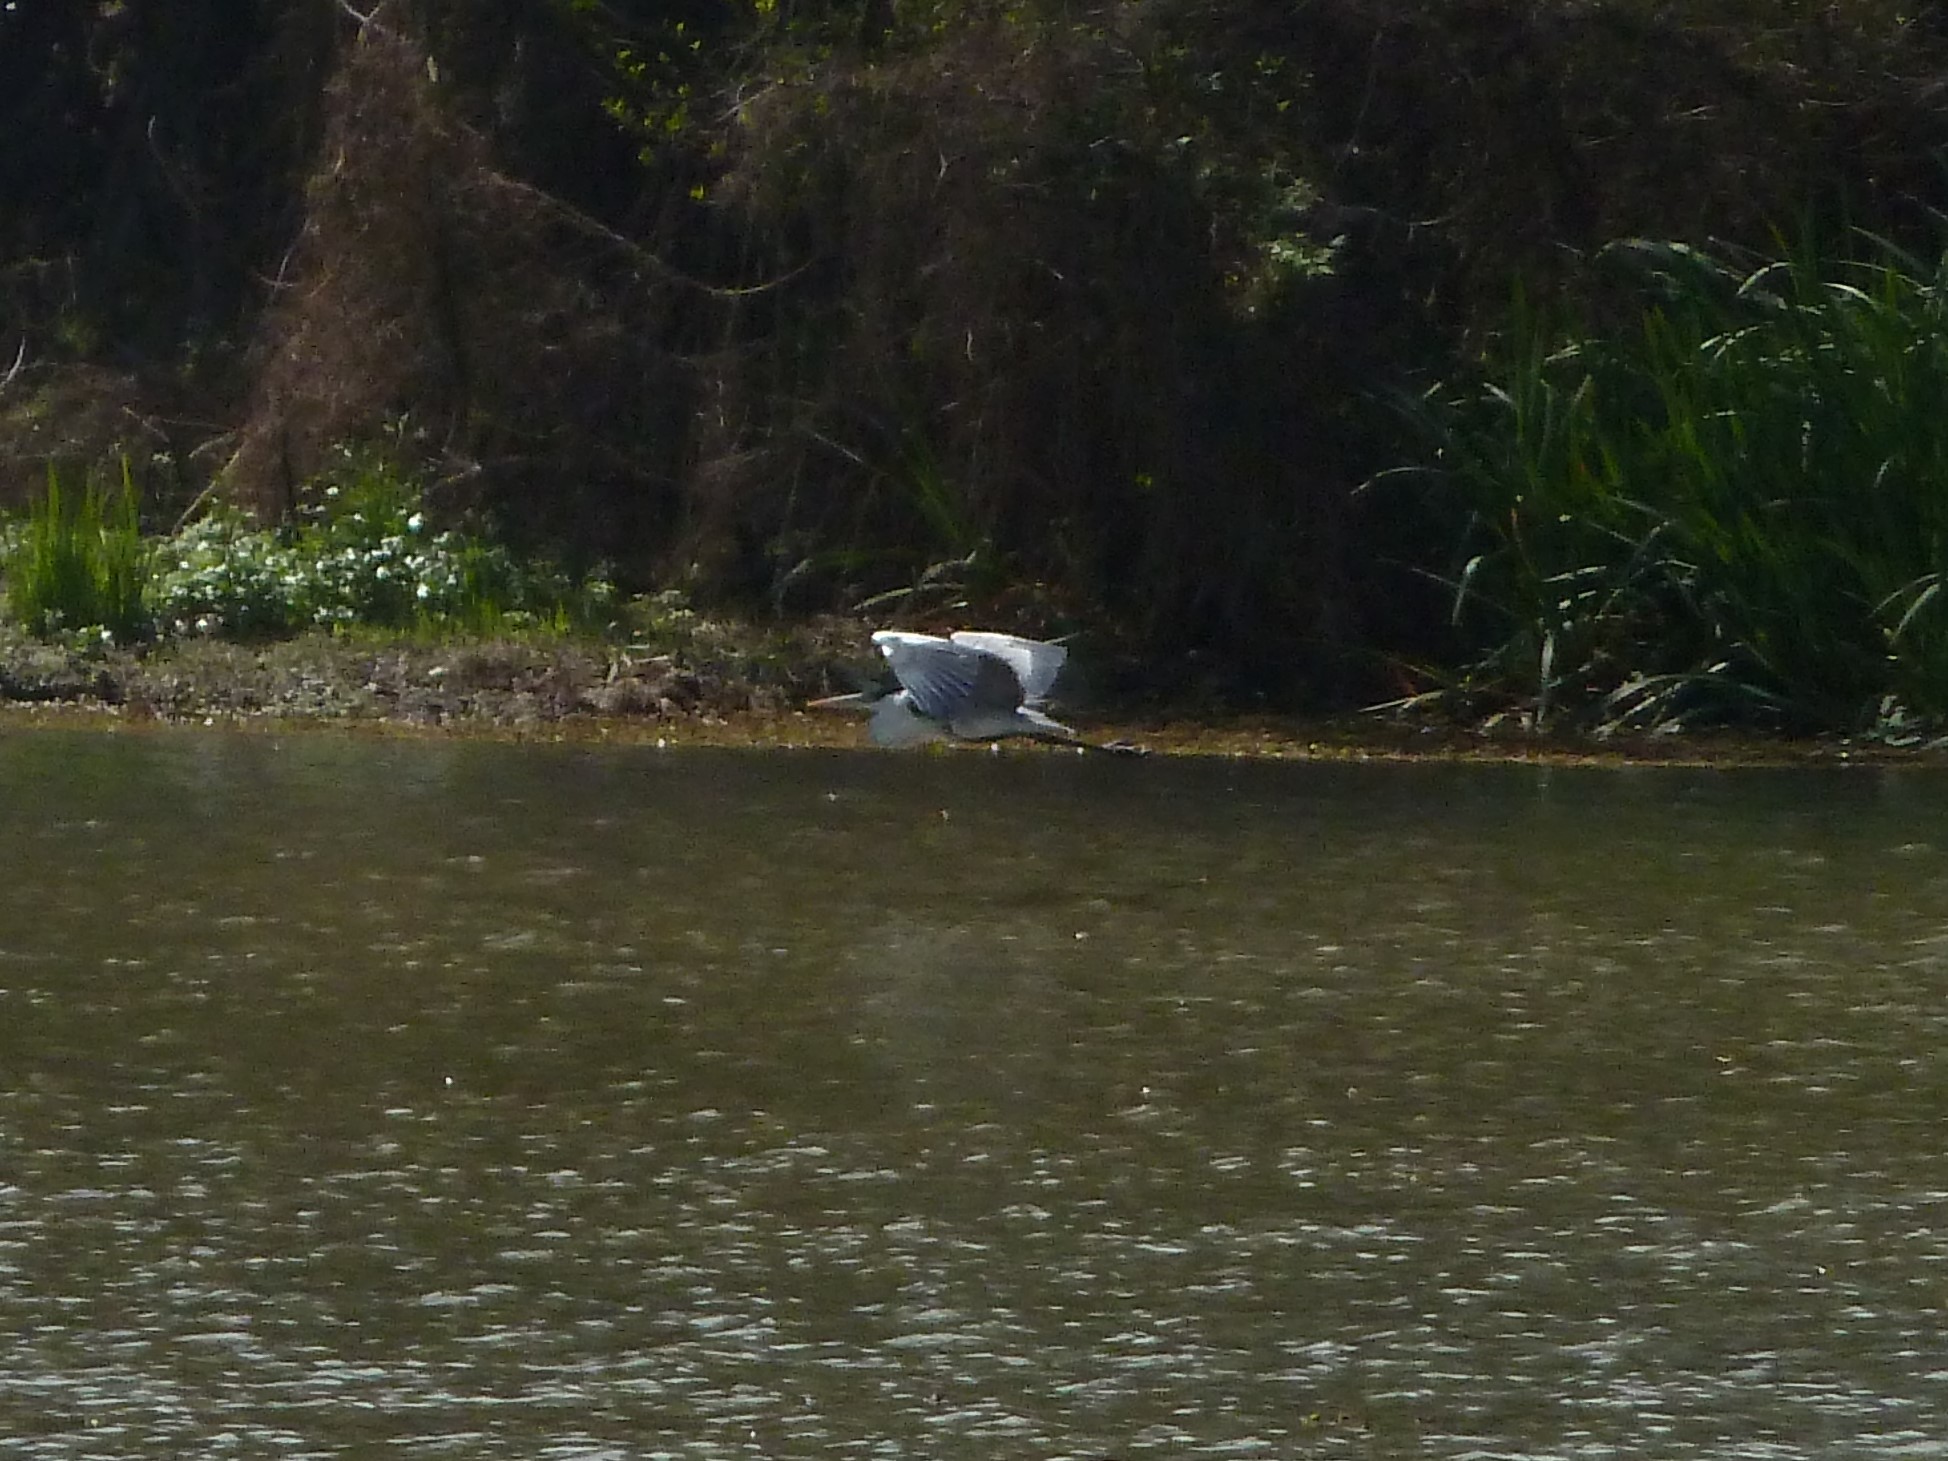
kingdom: Animalia
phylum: Chordata
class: Aves
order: Pelecaniformes
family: Ardeidae
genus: Ardea
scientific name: Ardea cocoi
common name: Cocoi heron
